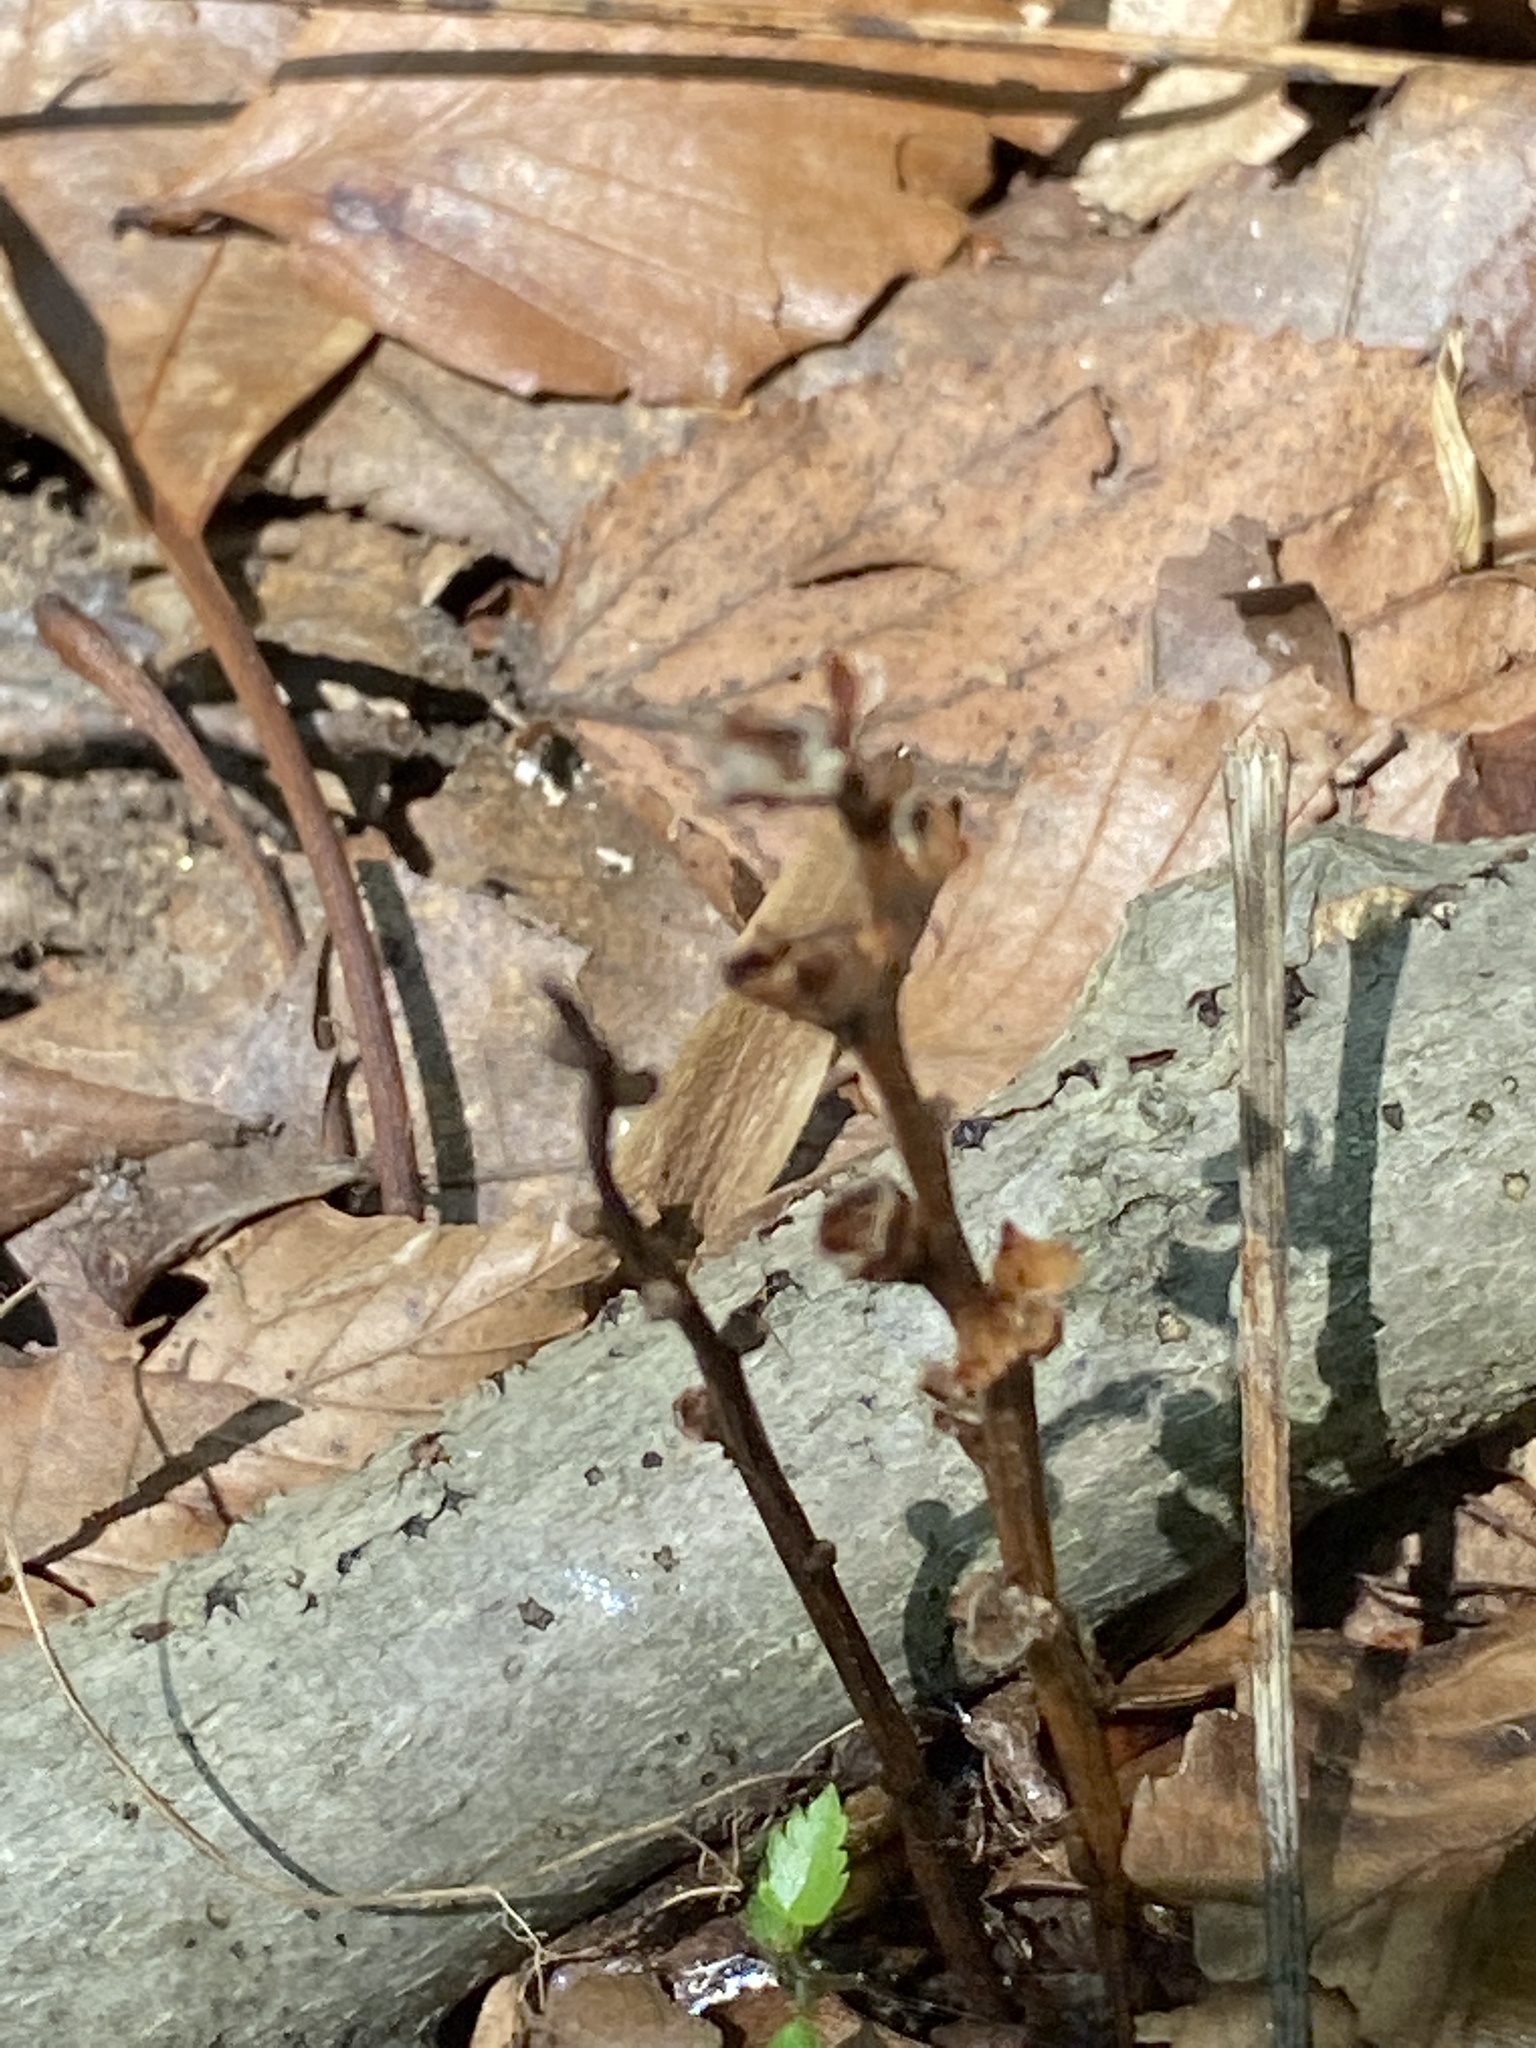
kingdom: Plantae
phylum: Tracheophyta
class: Magnoliopsida
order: Lamiales
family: Orobanchaceae
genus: Epifagus
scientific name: Epifagus virginiana
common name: Beechdrops
